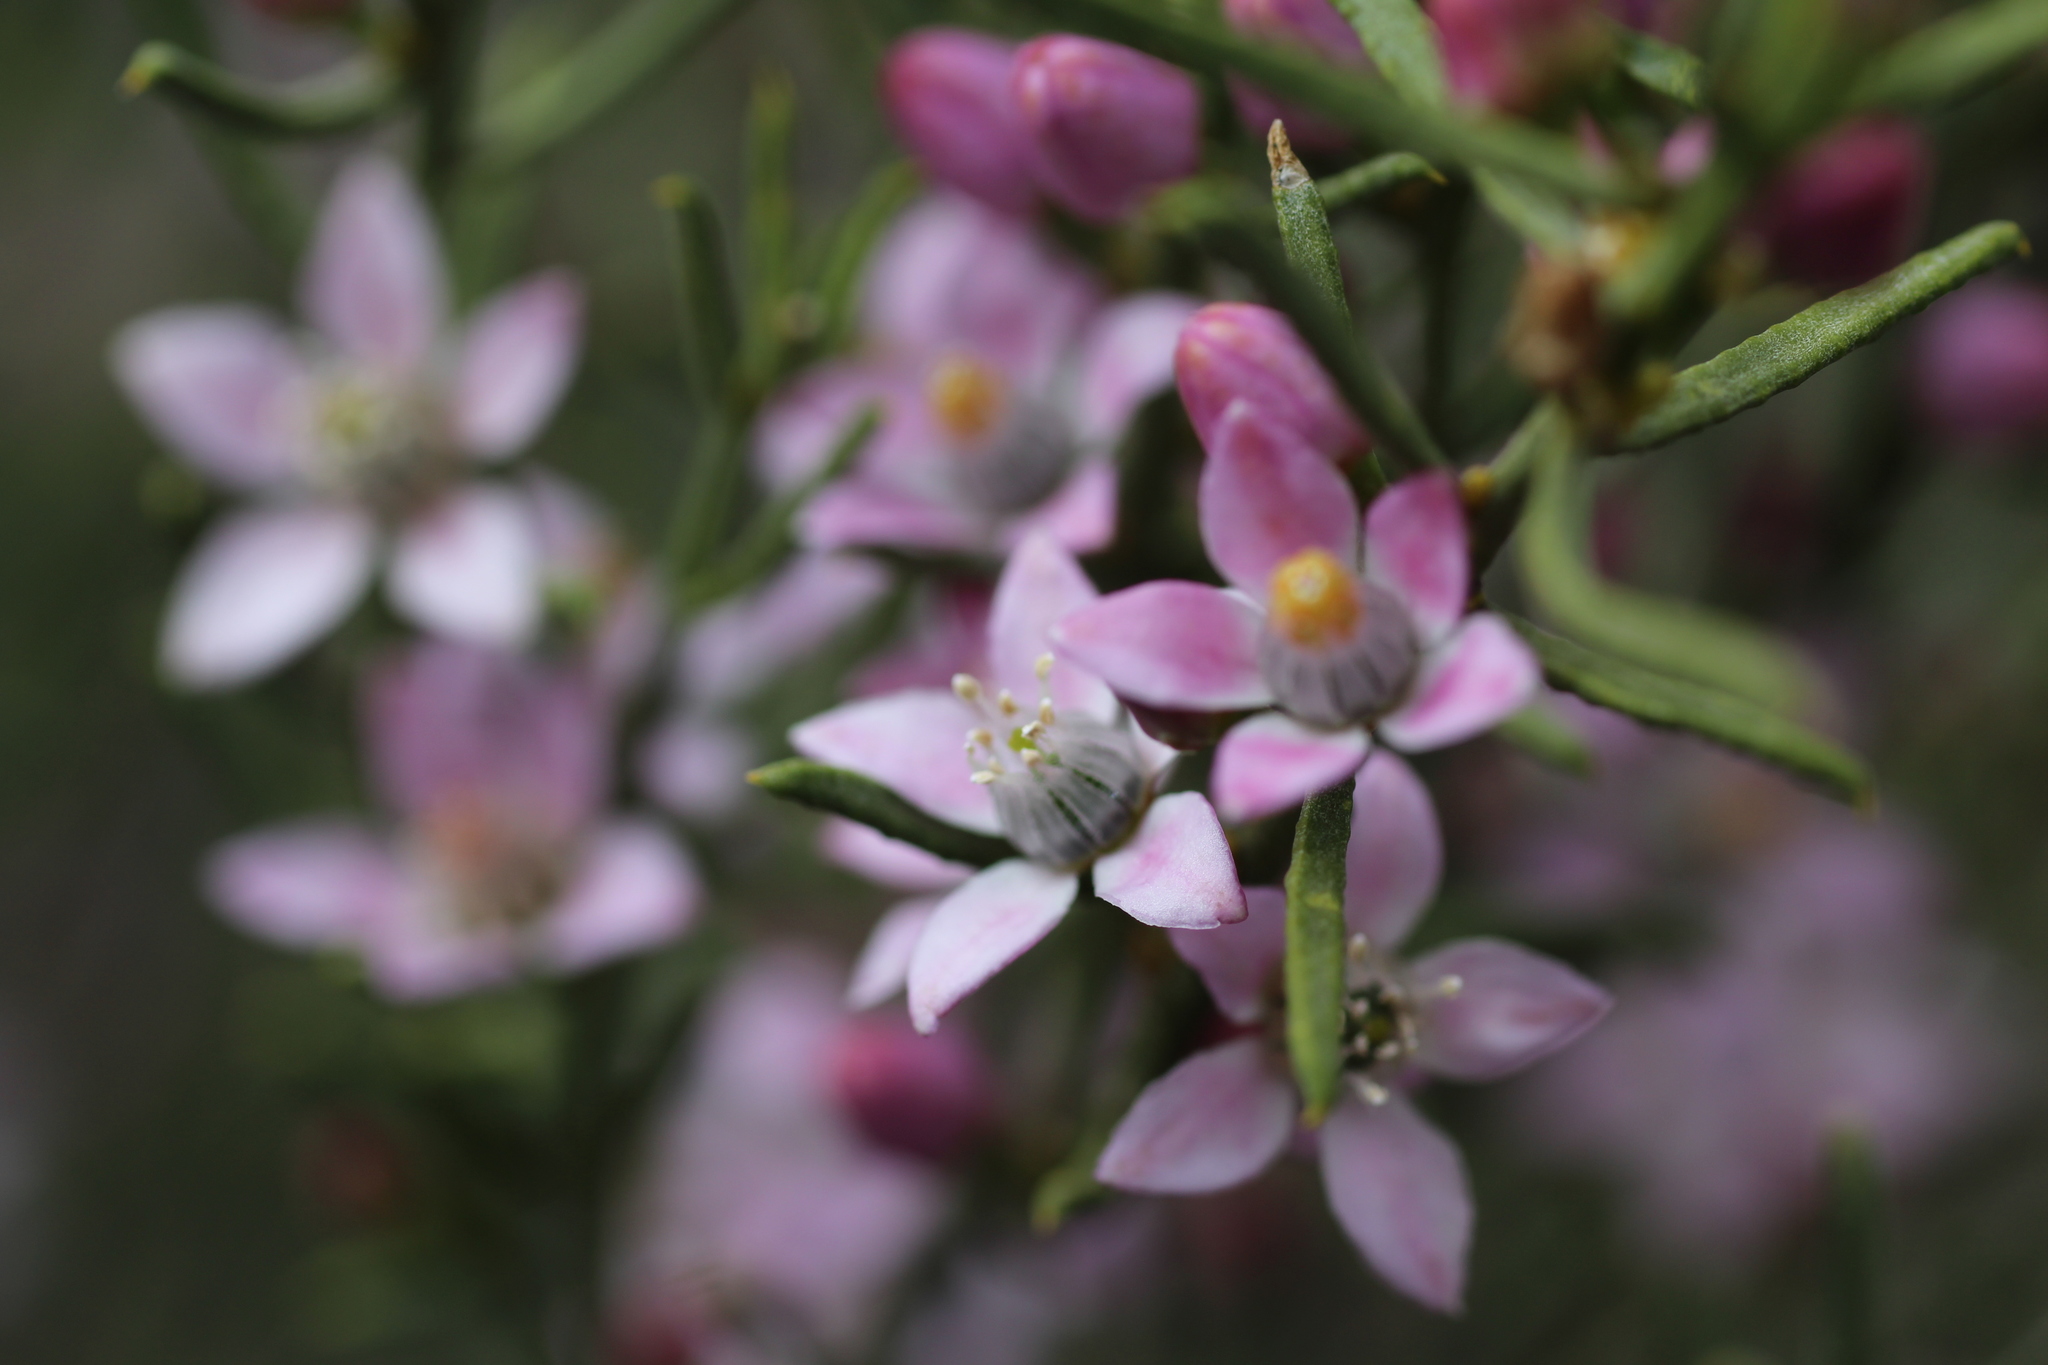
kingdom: Plantae
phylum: Tracheophyta
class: Magnoliopsida
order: Sapindales
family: Rutaceae
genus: Philotheca
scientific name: Philotheca brucei
